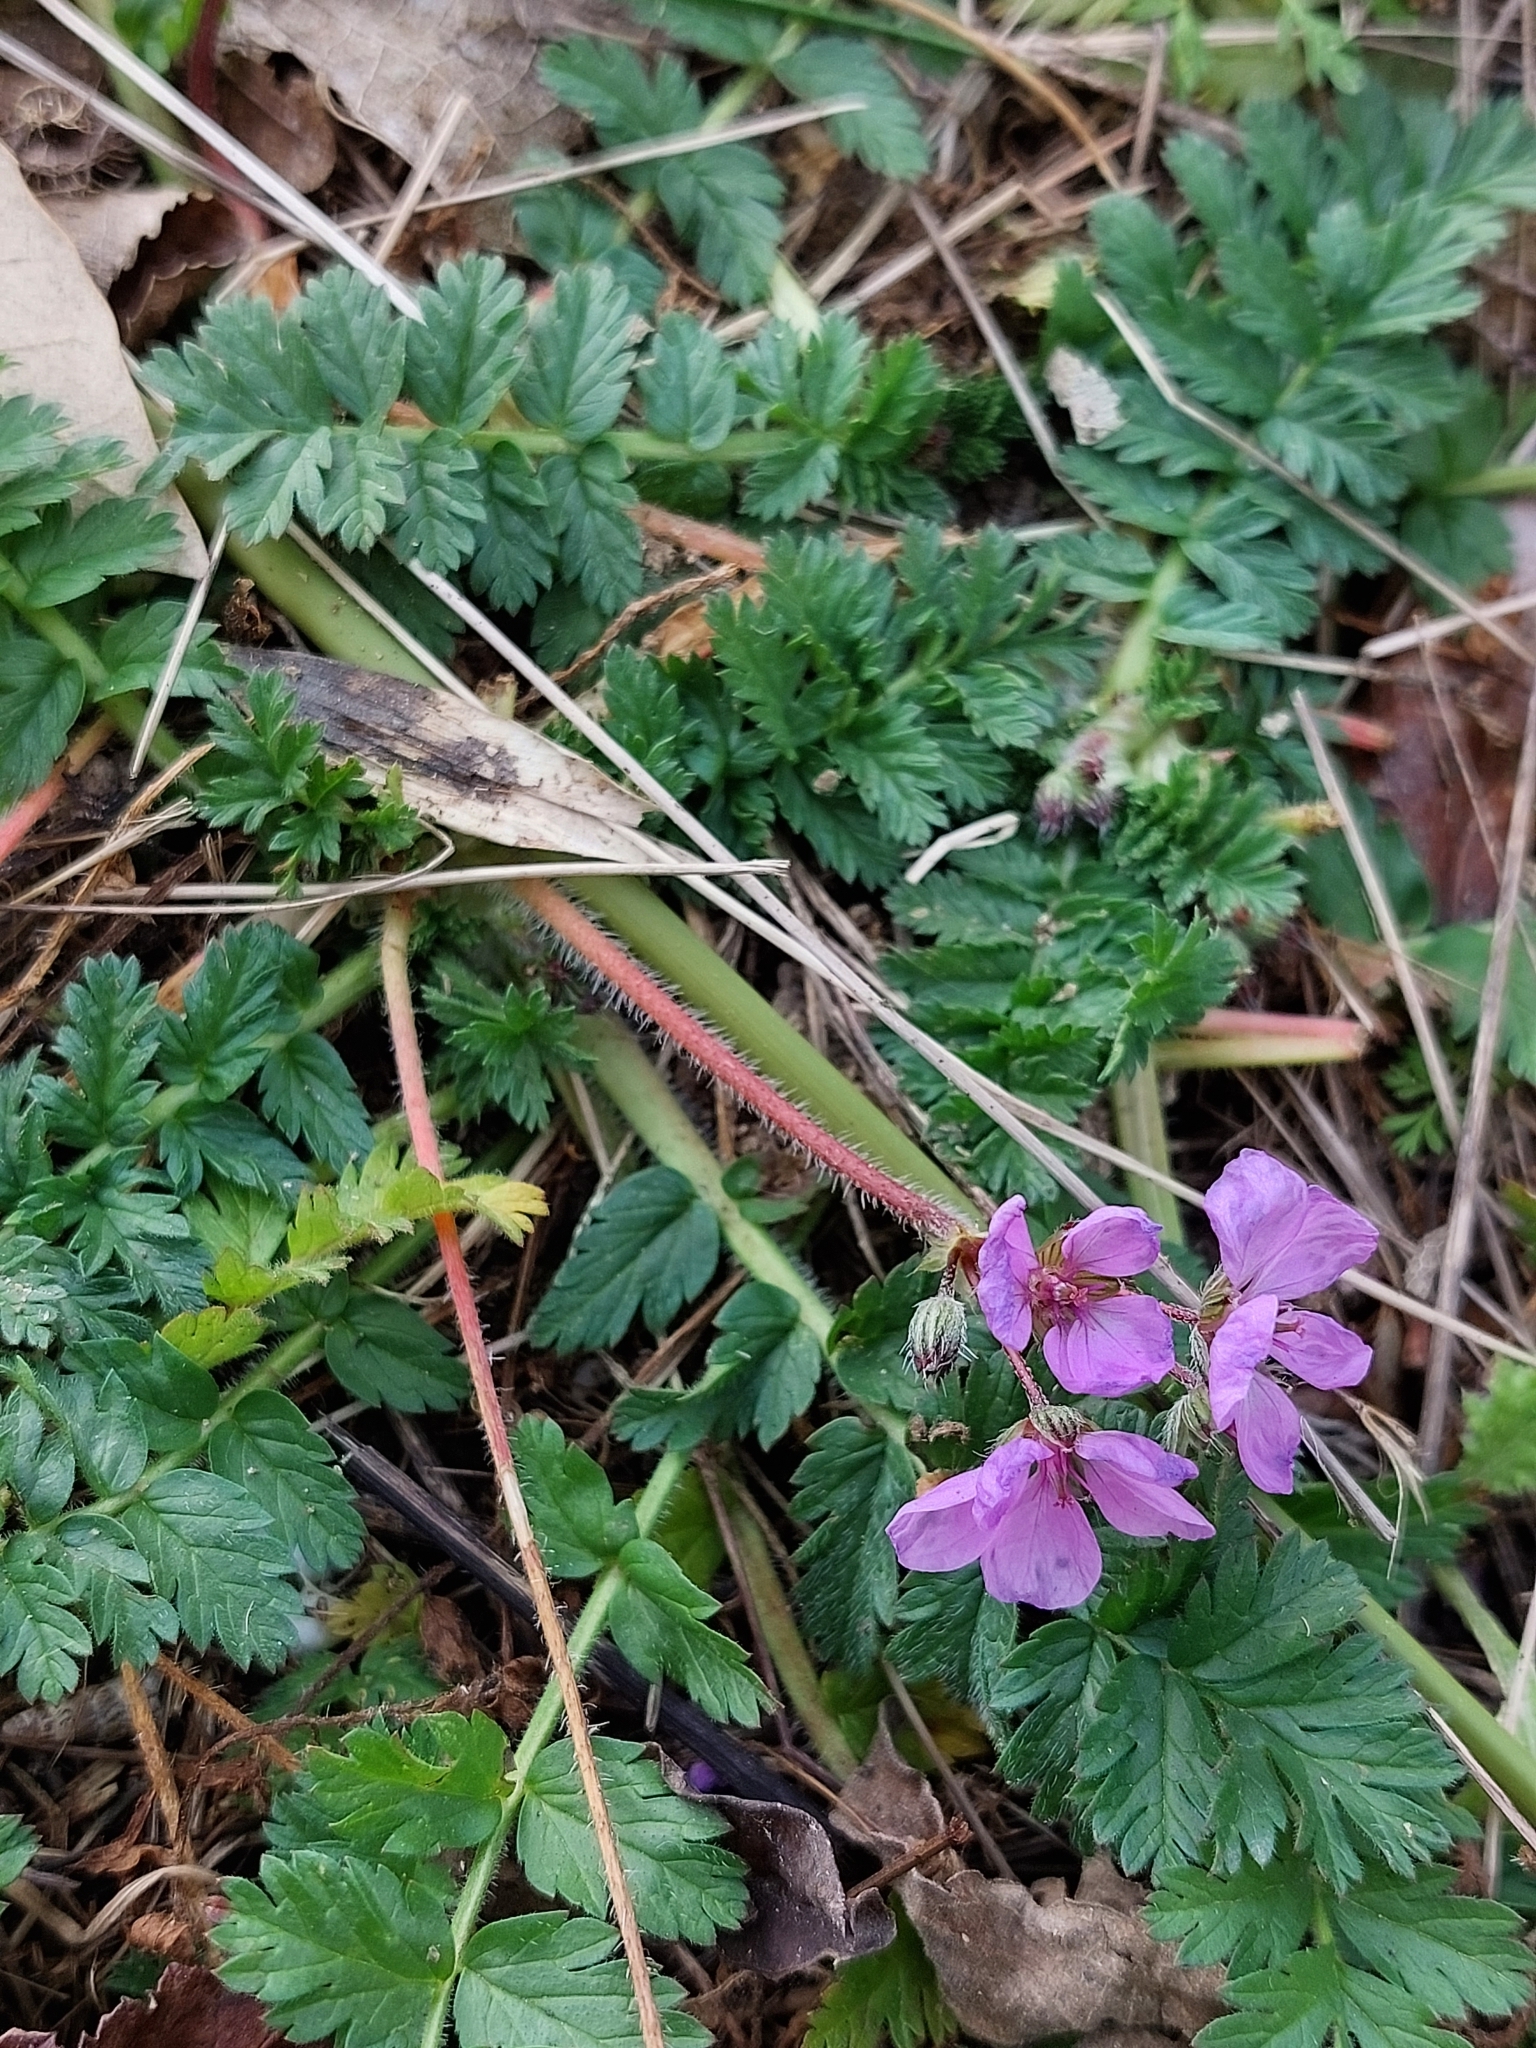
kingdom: Plantae
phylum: Tracheophyta
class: Magnoliopsida
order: Geraniales
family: Geraniaceae
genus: Erodium
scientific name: Erodium acaule
